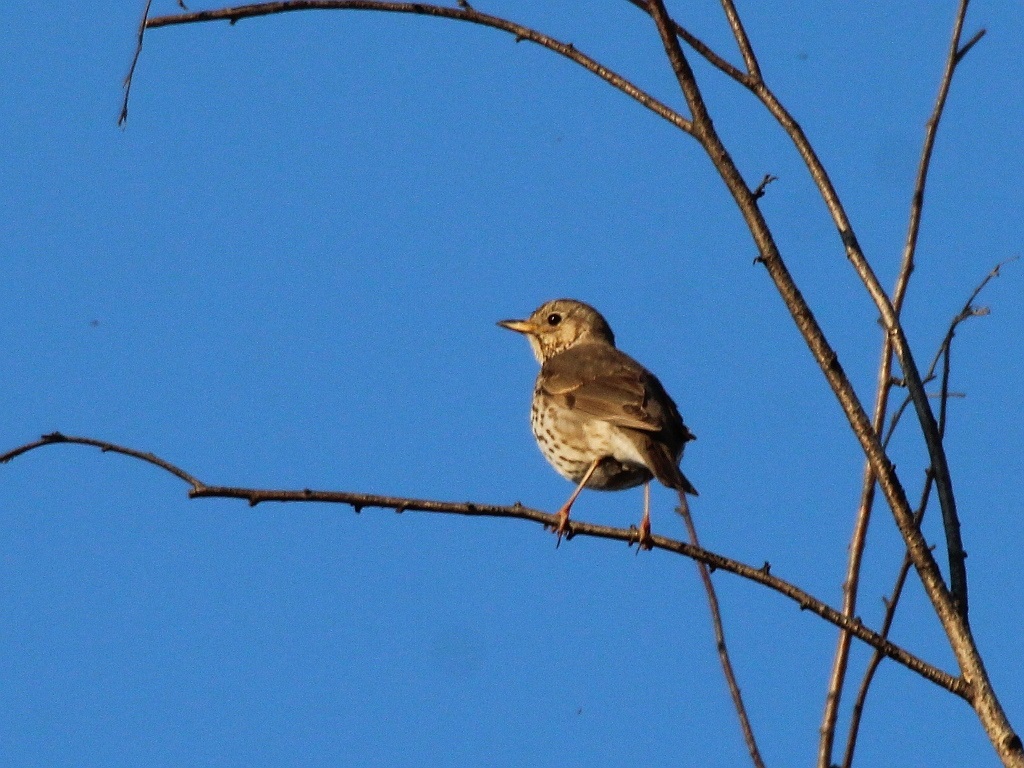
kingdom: Animalia
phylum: Chordata
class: Aves
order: Passeriformes
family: Turdidae
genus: Turdus
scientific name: Turdus philomelos
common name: Song thrush
